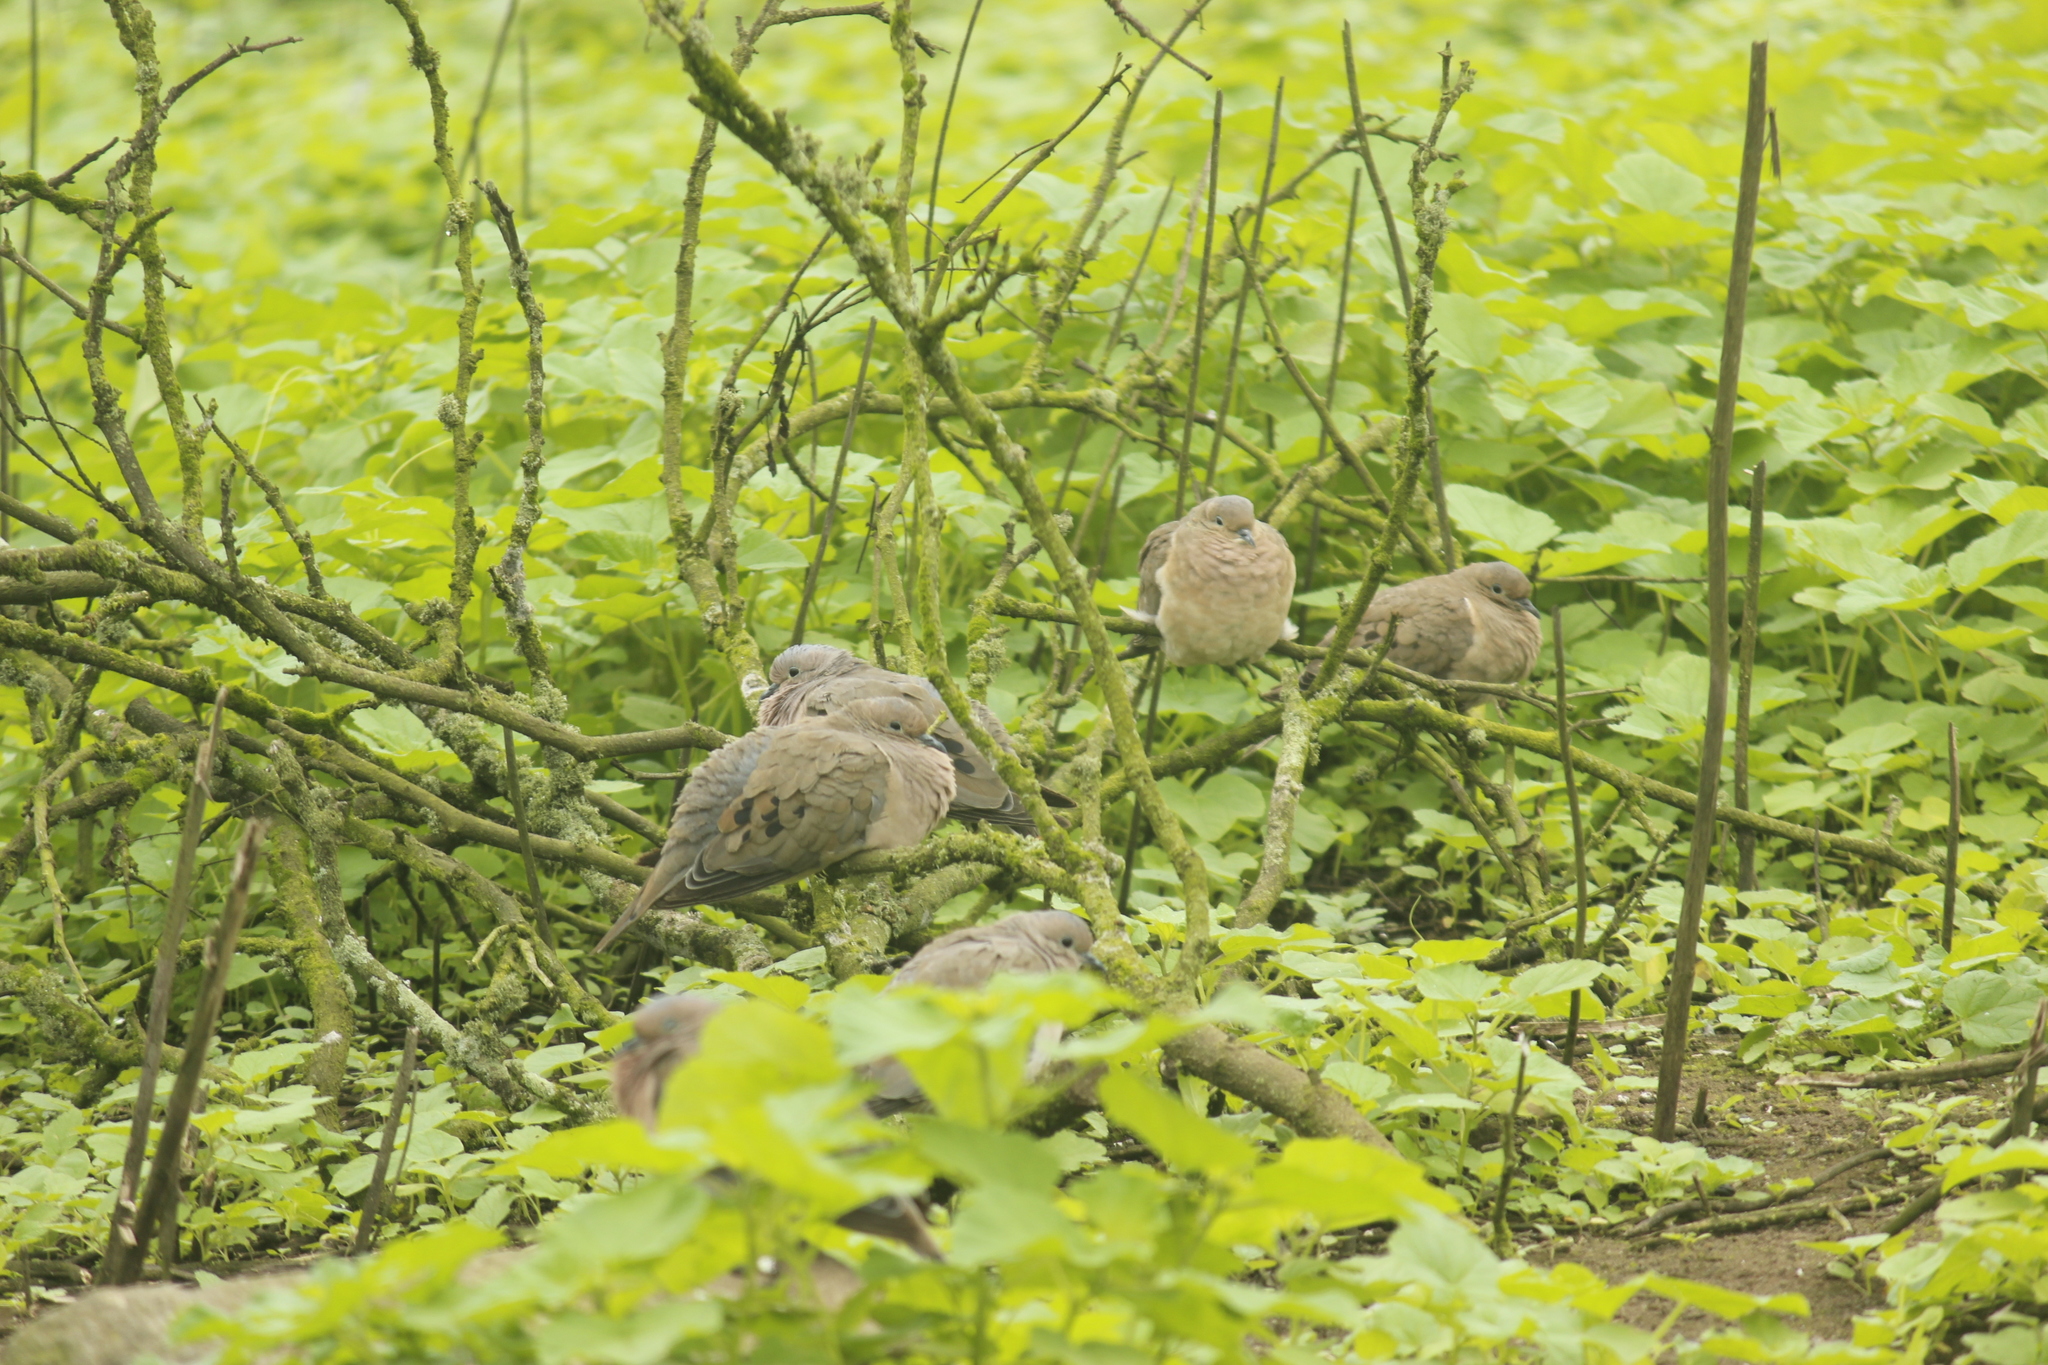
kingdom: Animalia
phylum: Chordata
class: Aves
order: Columbiformes
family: Columbidae
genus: Zenaida
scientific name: Zenaida auriculata
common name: Eared dove
